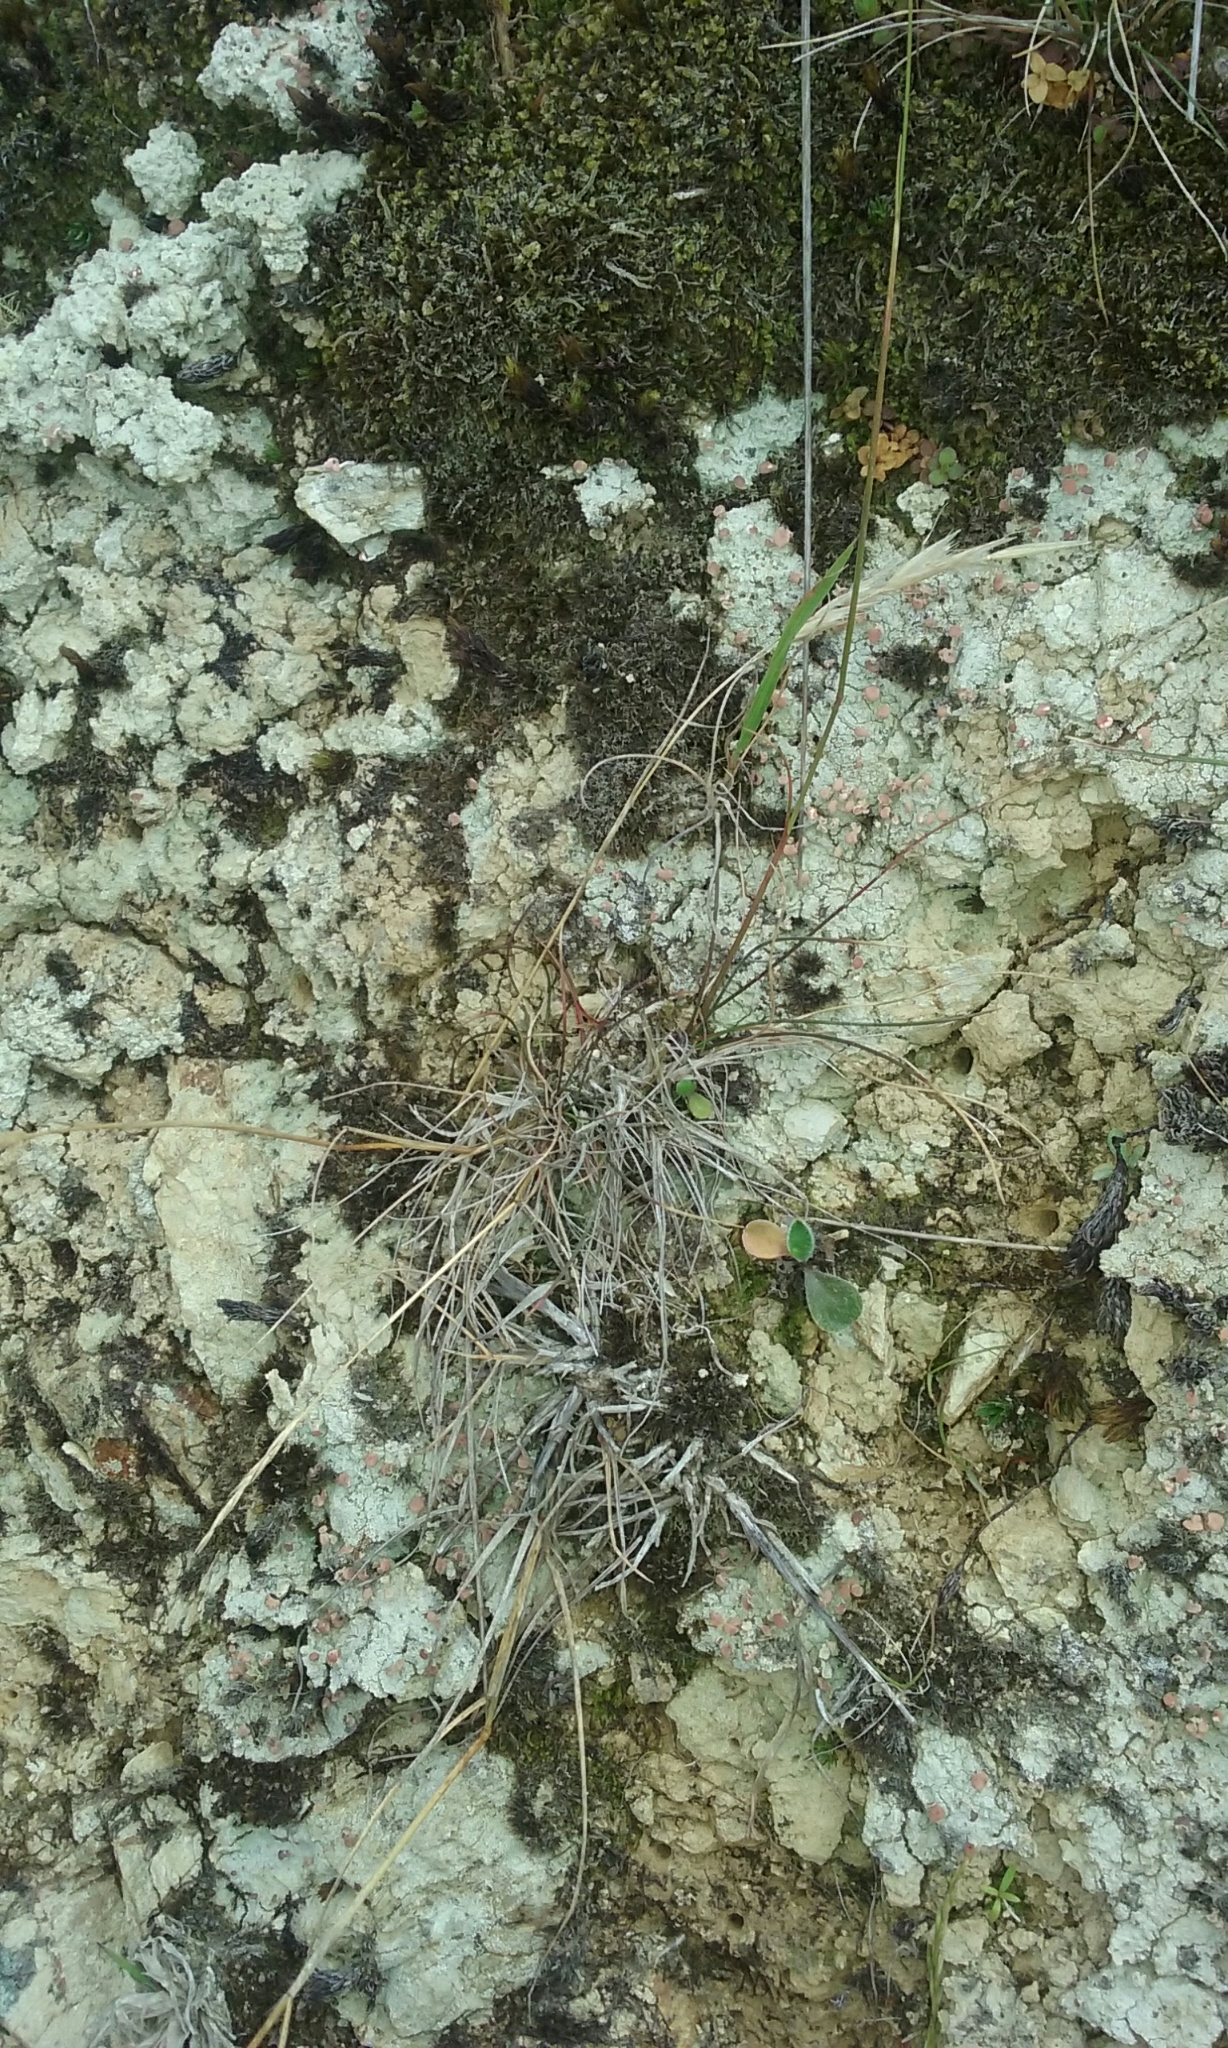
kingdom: Plantae
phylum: Tracheophyta
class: Liliopsida
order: Poales
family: Poaceae
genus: Calamagrostis
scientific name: Calamagrostis avenoides
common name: Mountain oat grass
